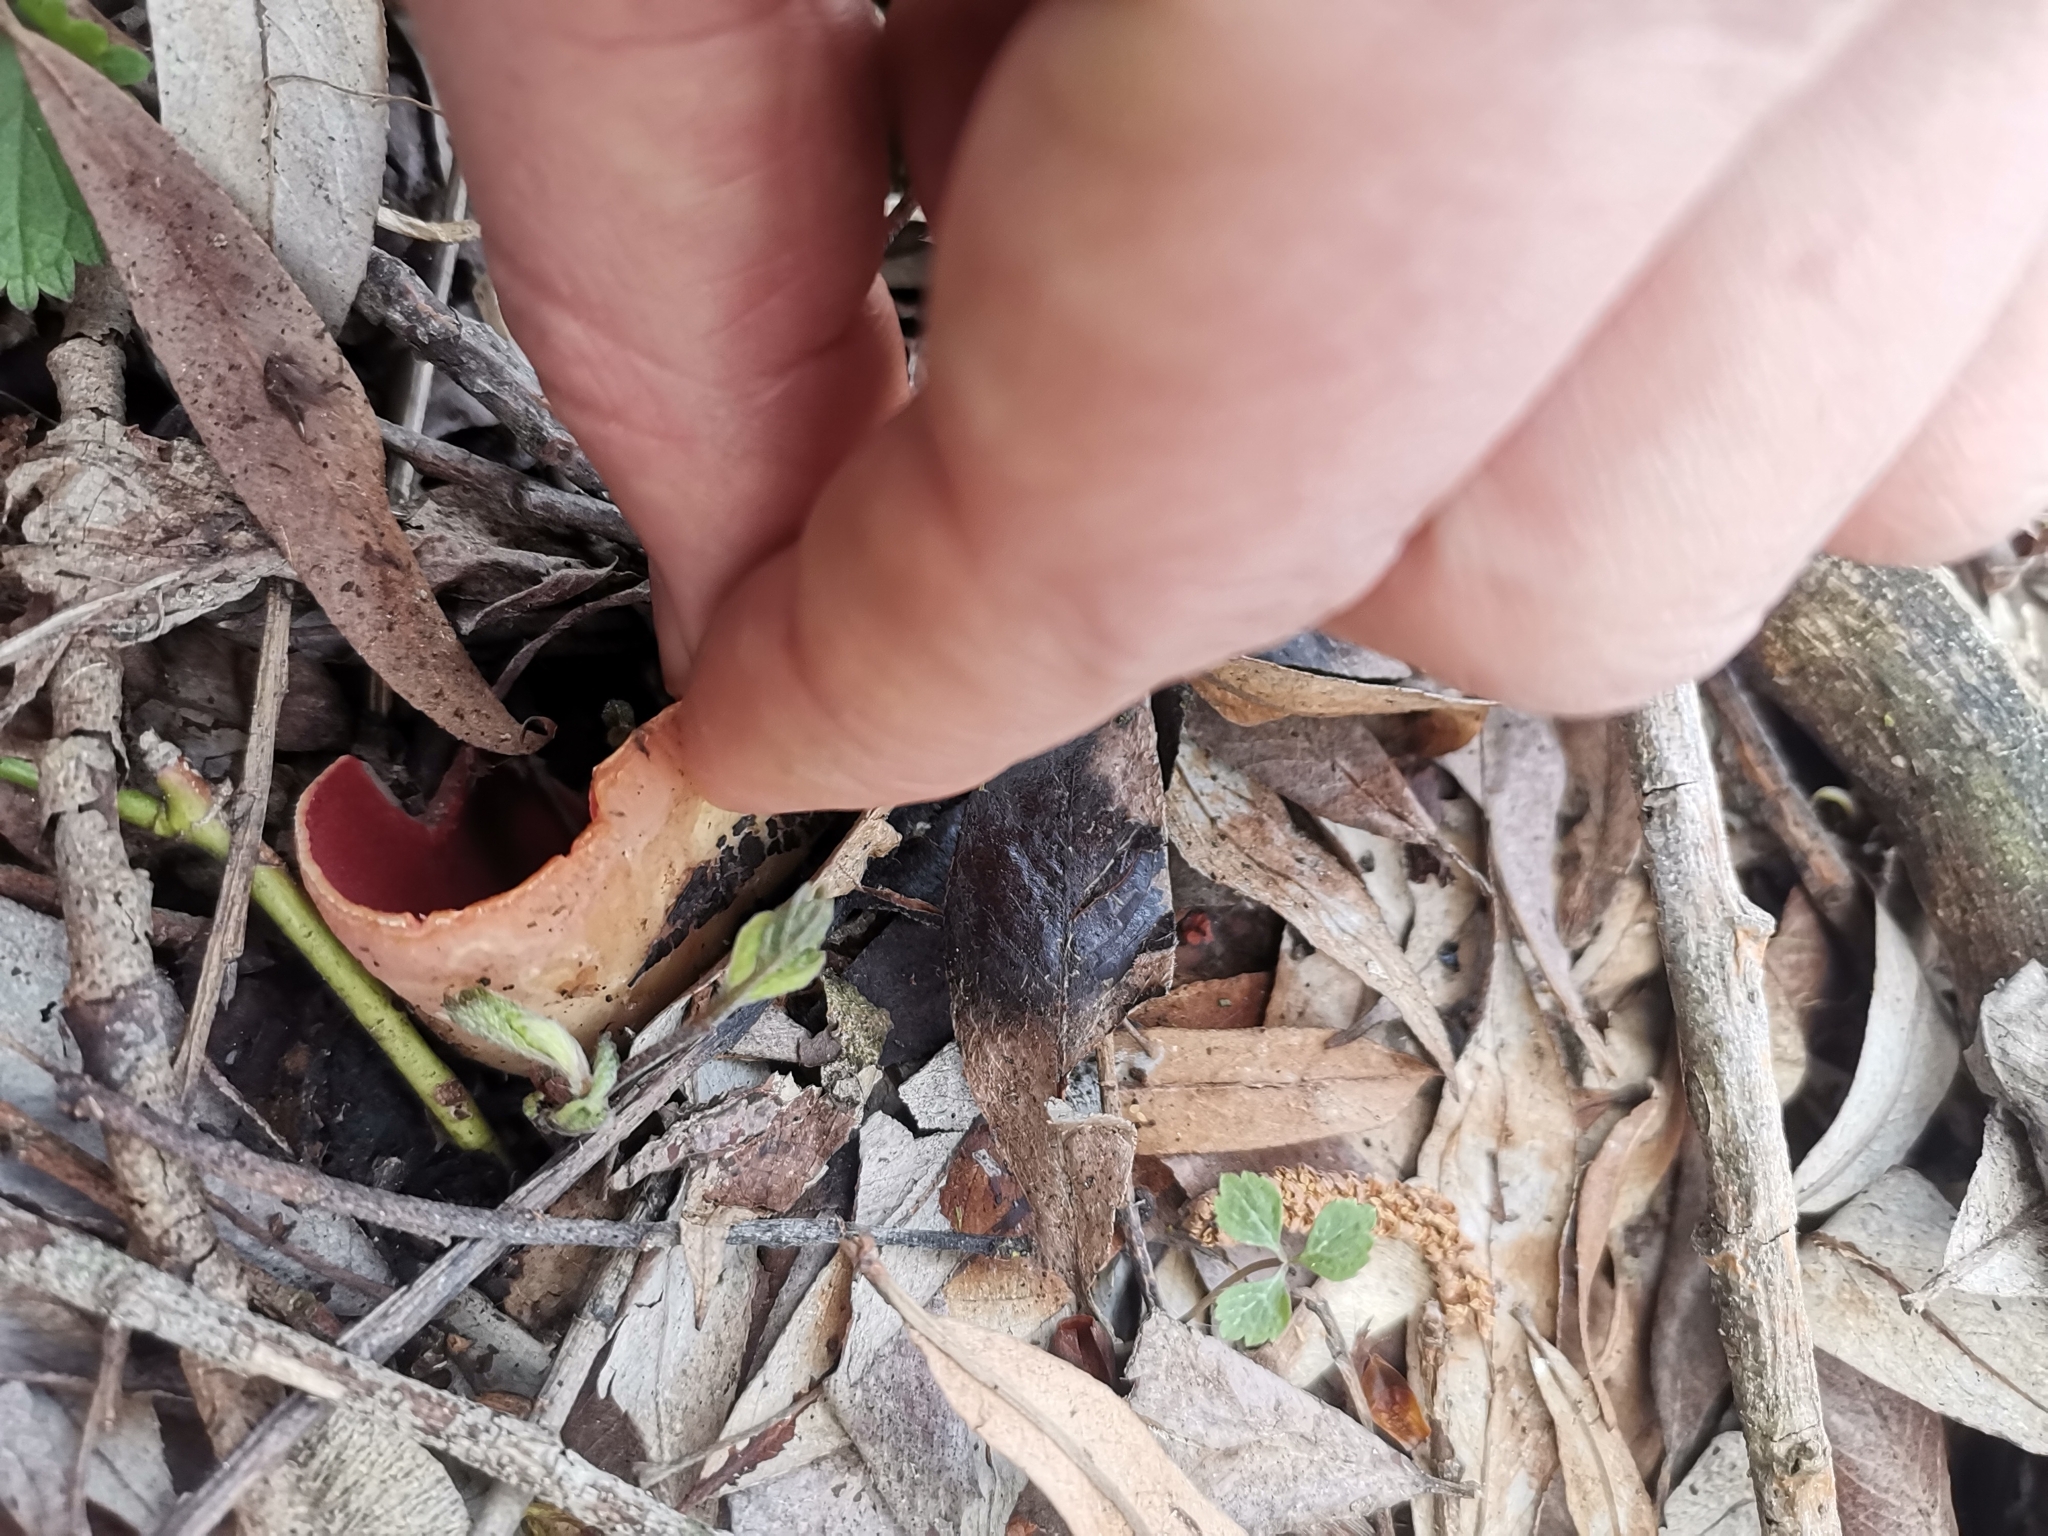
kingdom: Fungi
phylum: Ascomycota
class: Pezizomycetes
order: Pezizales
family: Sarcoscyphaceae
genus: Sarcoscypha
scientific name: Sarcoscypha
